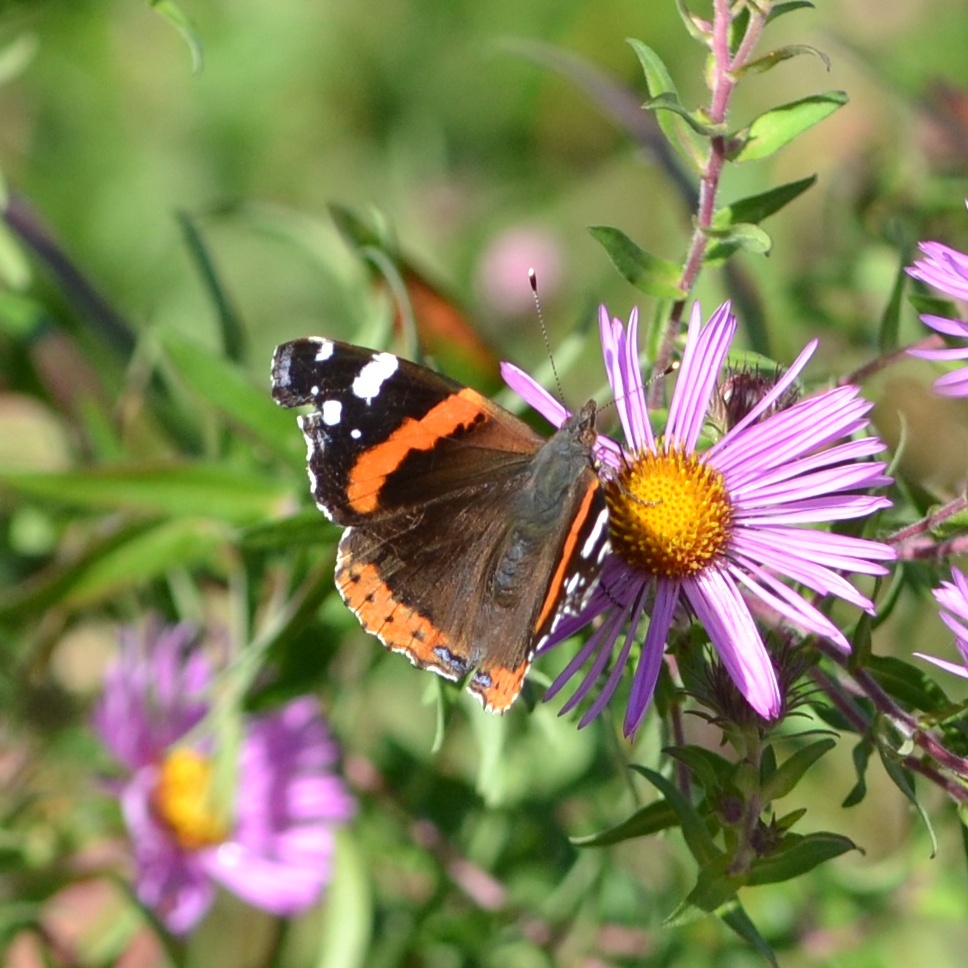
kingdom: Animalia
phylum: Arthropoda
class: Insecta
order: Lepidoptera
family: Nymphalidae
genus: Vanessa
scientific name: Vanessa atalanta
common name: Red admiral
